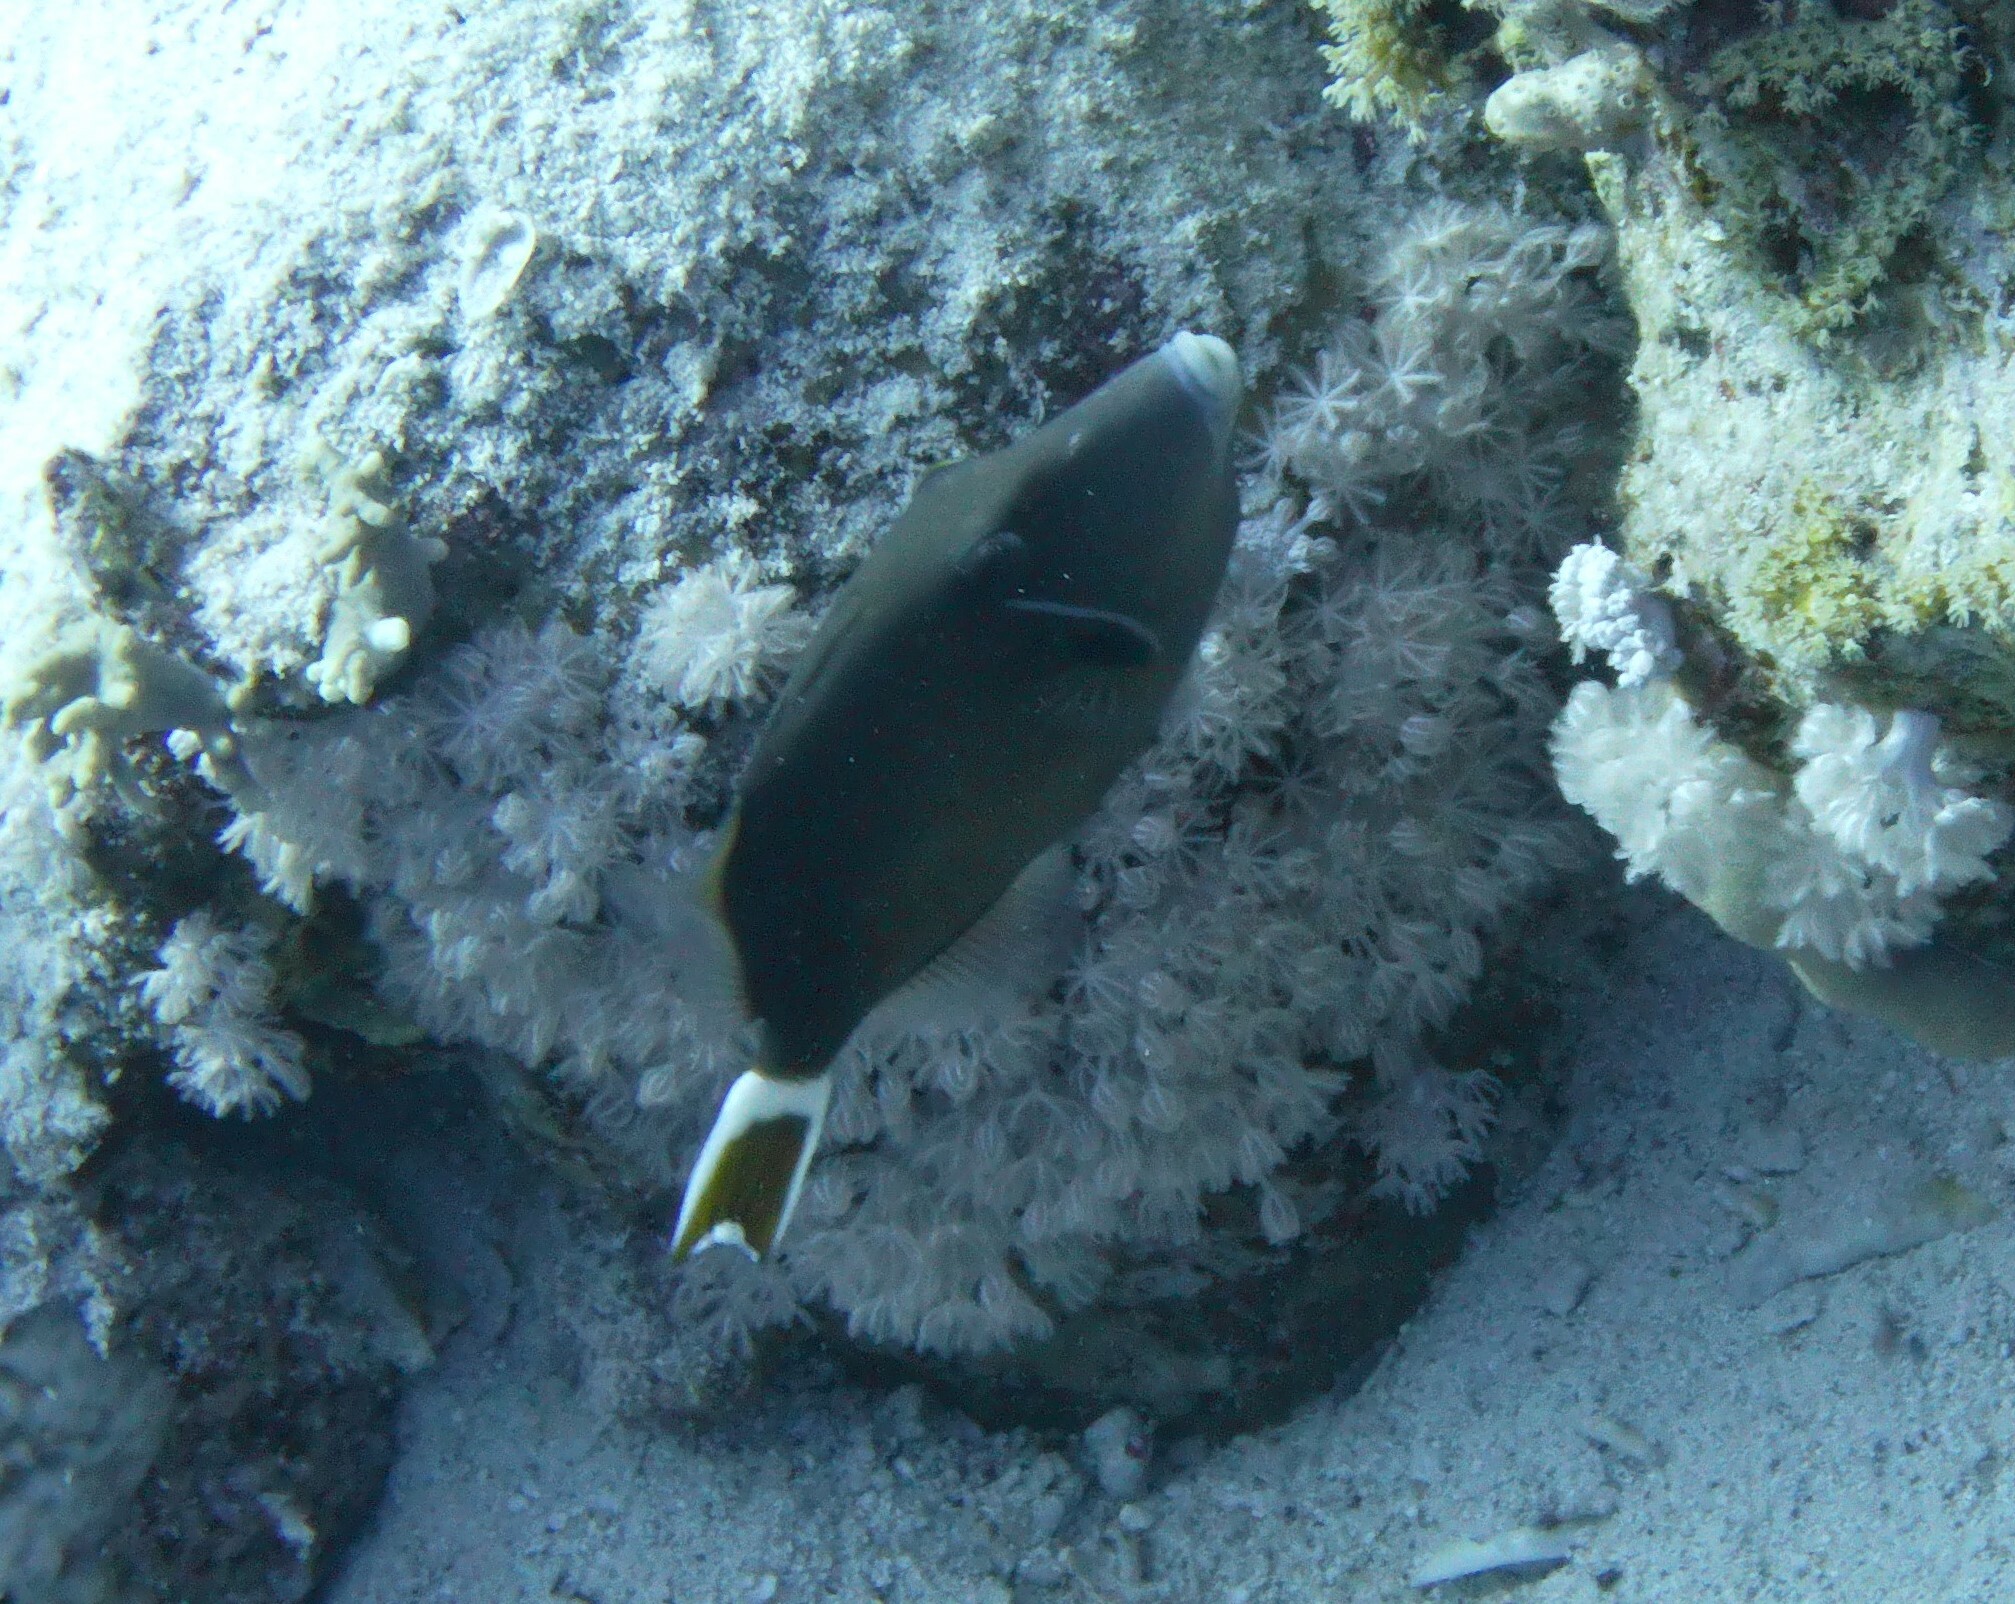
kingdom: Animalia
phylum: Chordata
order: Tetraodontiformes
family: Balistidae
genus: Sufflamen
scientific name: Sufflamen albicaudatum
